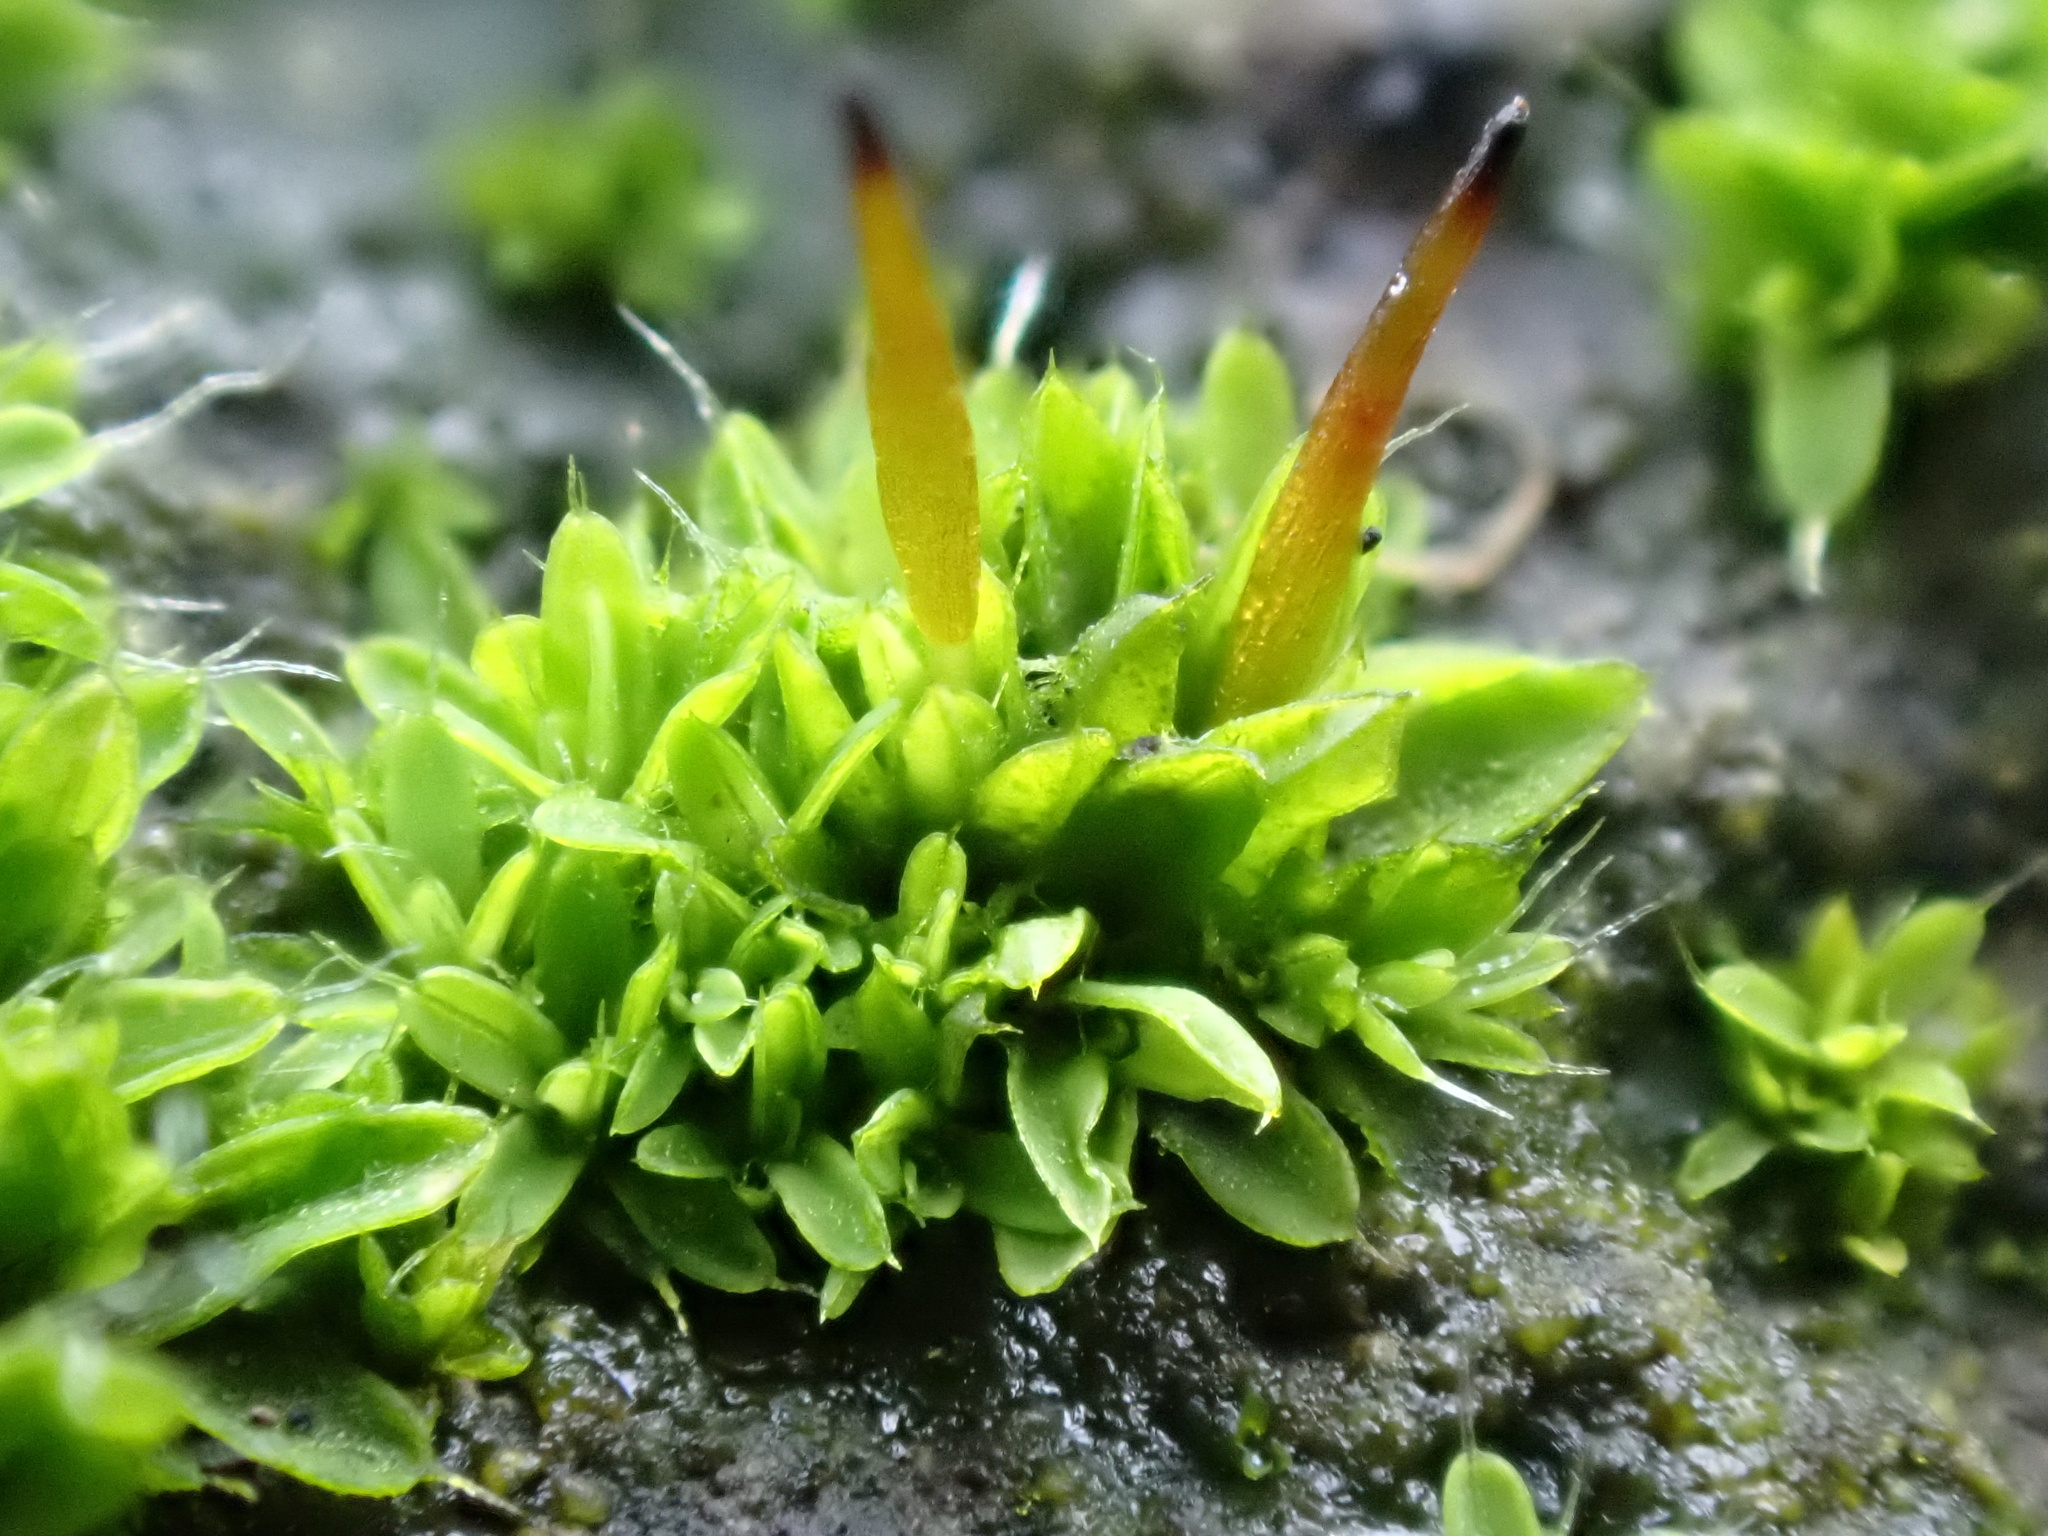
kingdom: Plantae
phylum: Bryophyta
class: Bryopsida
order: Pottiales
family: Pottiaceae
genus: Tortula
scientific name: Tortula muralis
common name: Wall screw-moss
